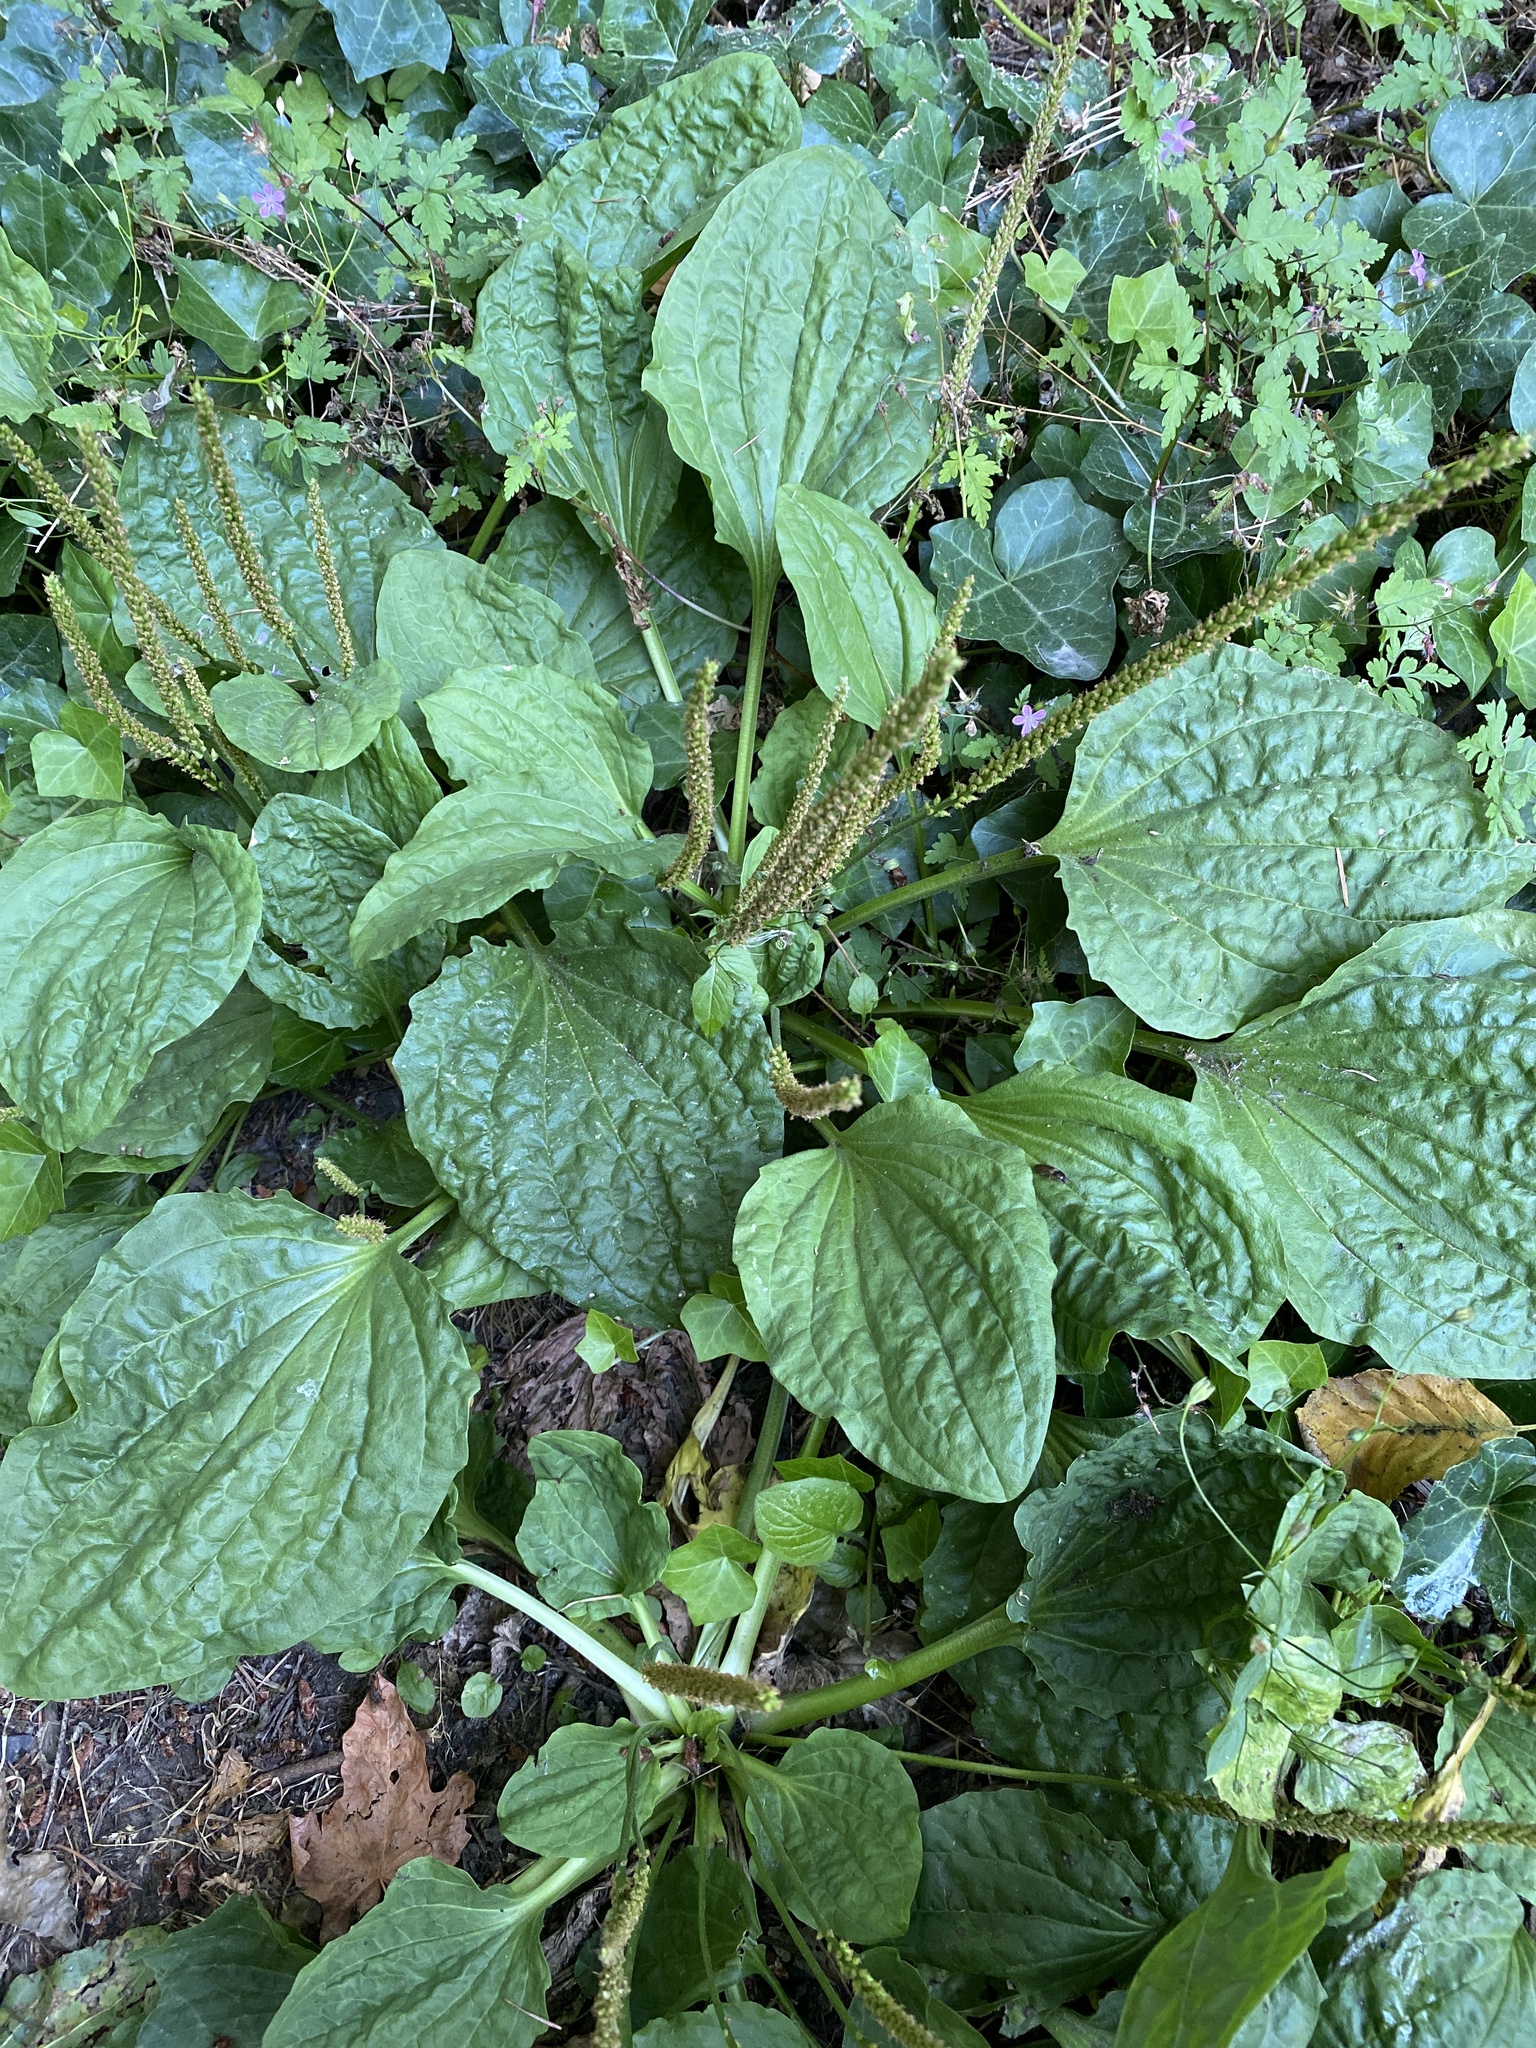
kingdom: Plantae
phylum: Tracheophyta
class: Magnoliopsida
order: Lamiales
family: Plantaginaceae
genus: Plantago
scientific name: Plantago major
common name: Common plantain
